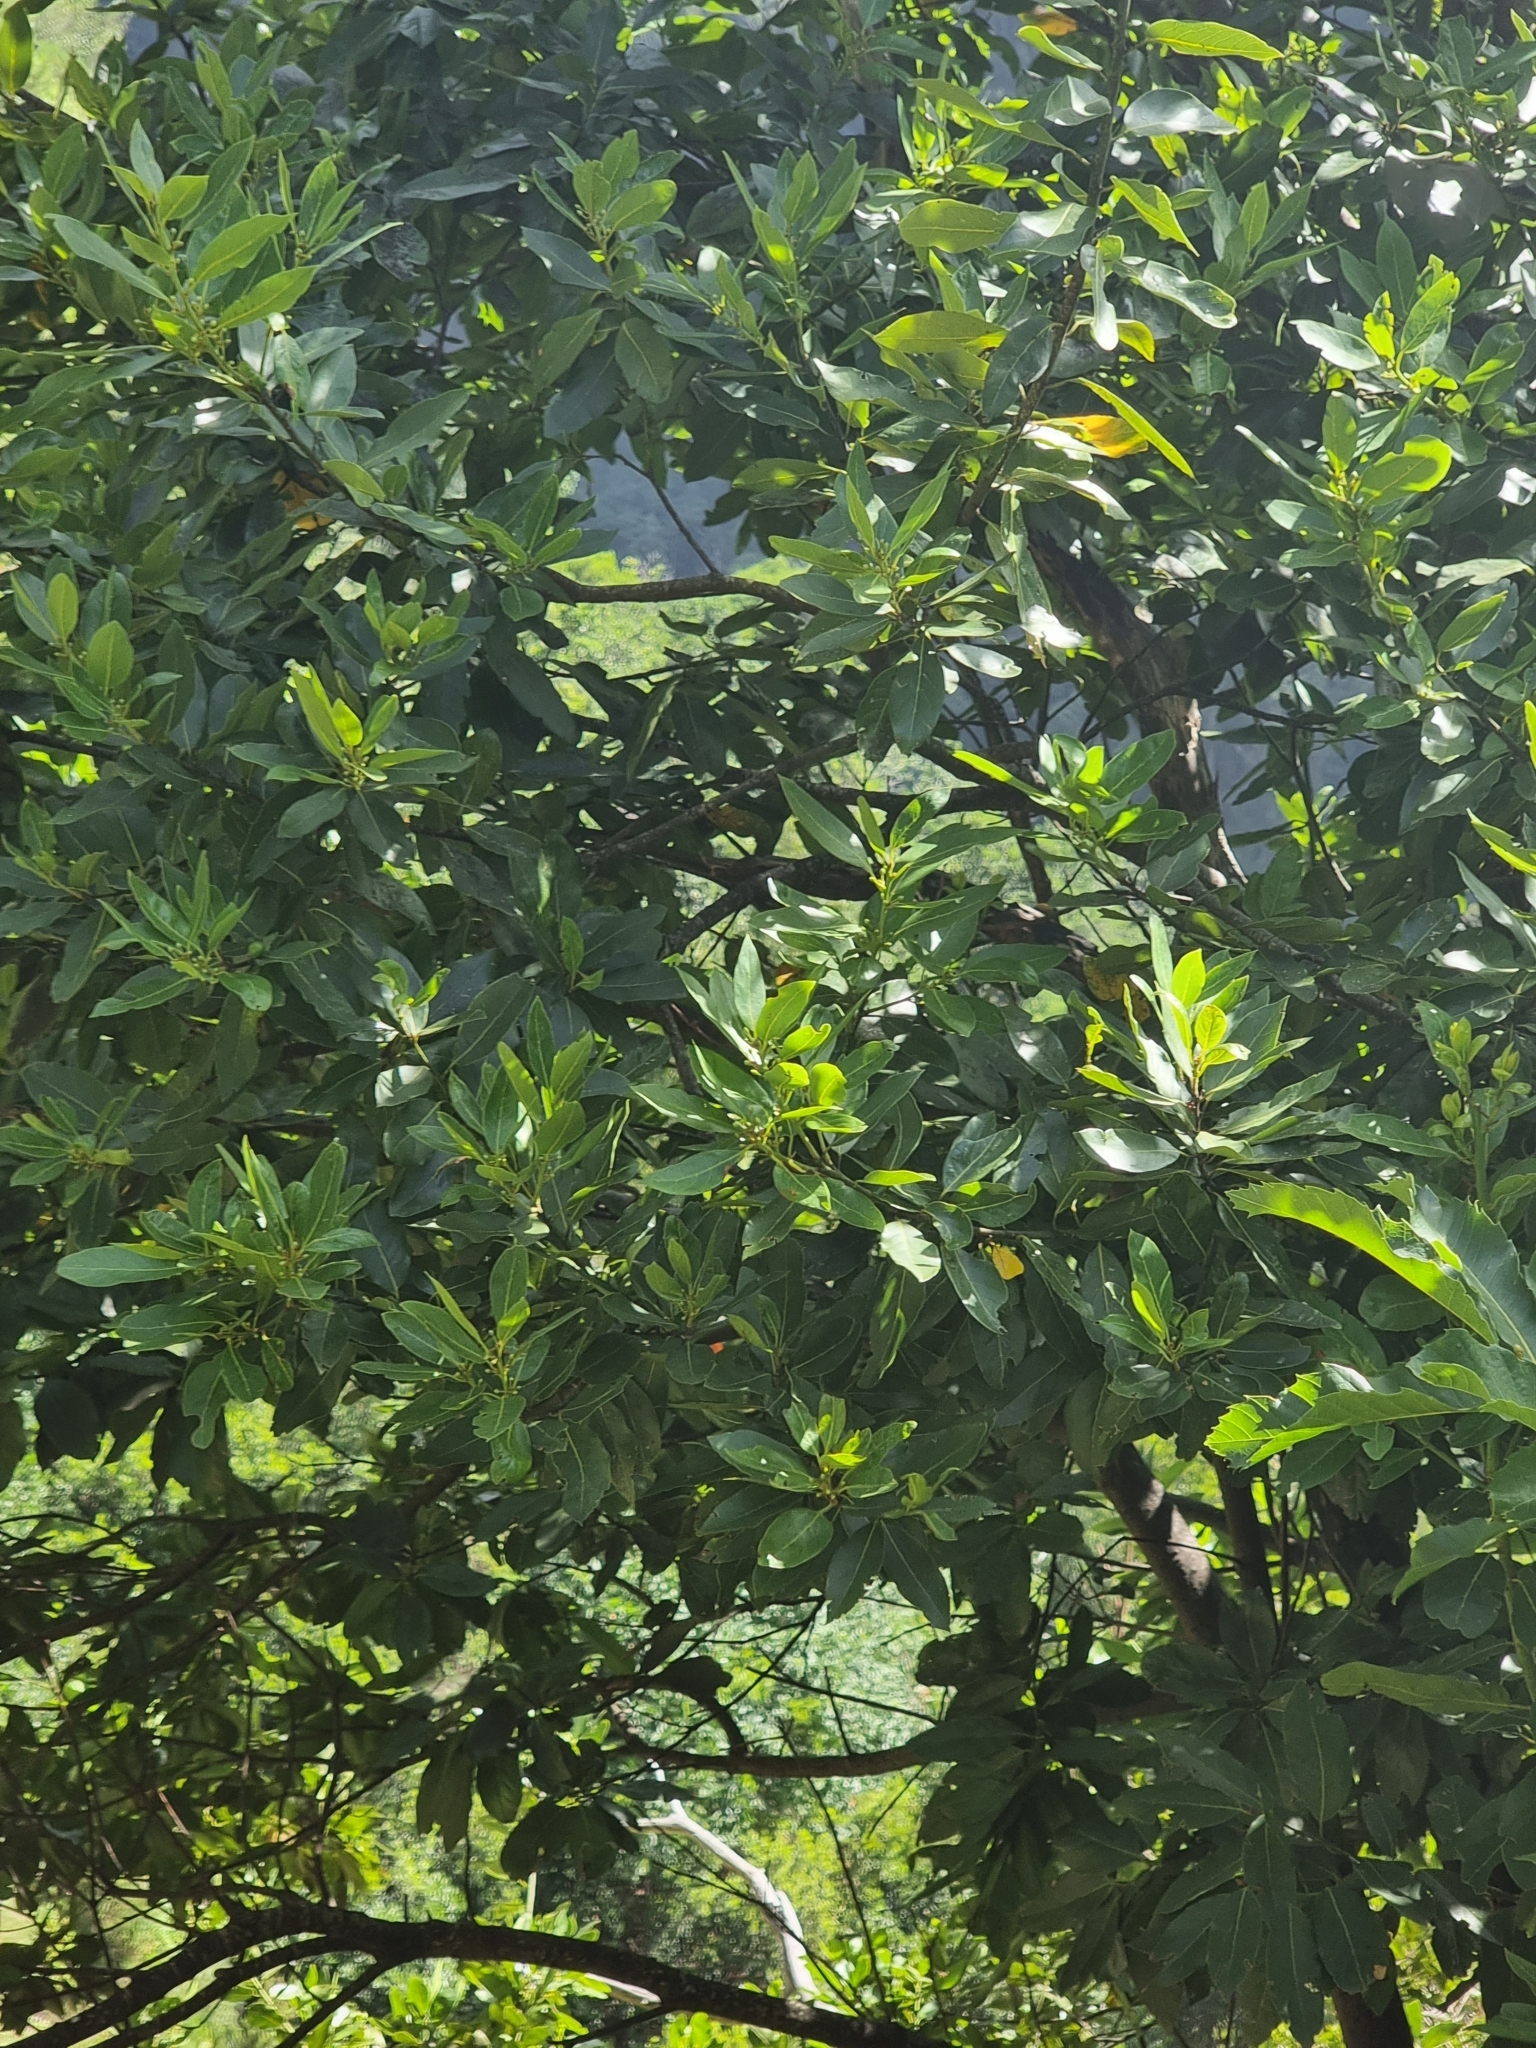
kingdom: Plantae
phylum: Tracheophyta
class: Magnoliopsida
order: Laurales
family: Lauraceae
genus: Laurus
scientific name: Laurus novocanariensis
